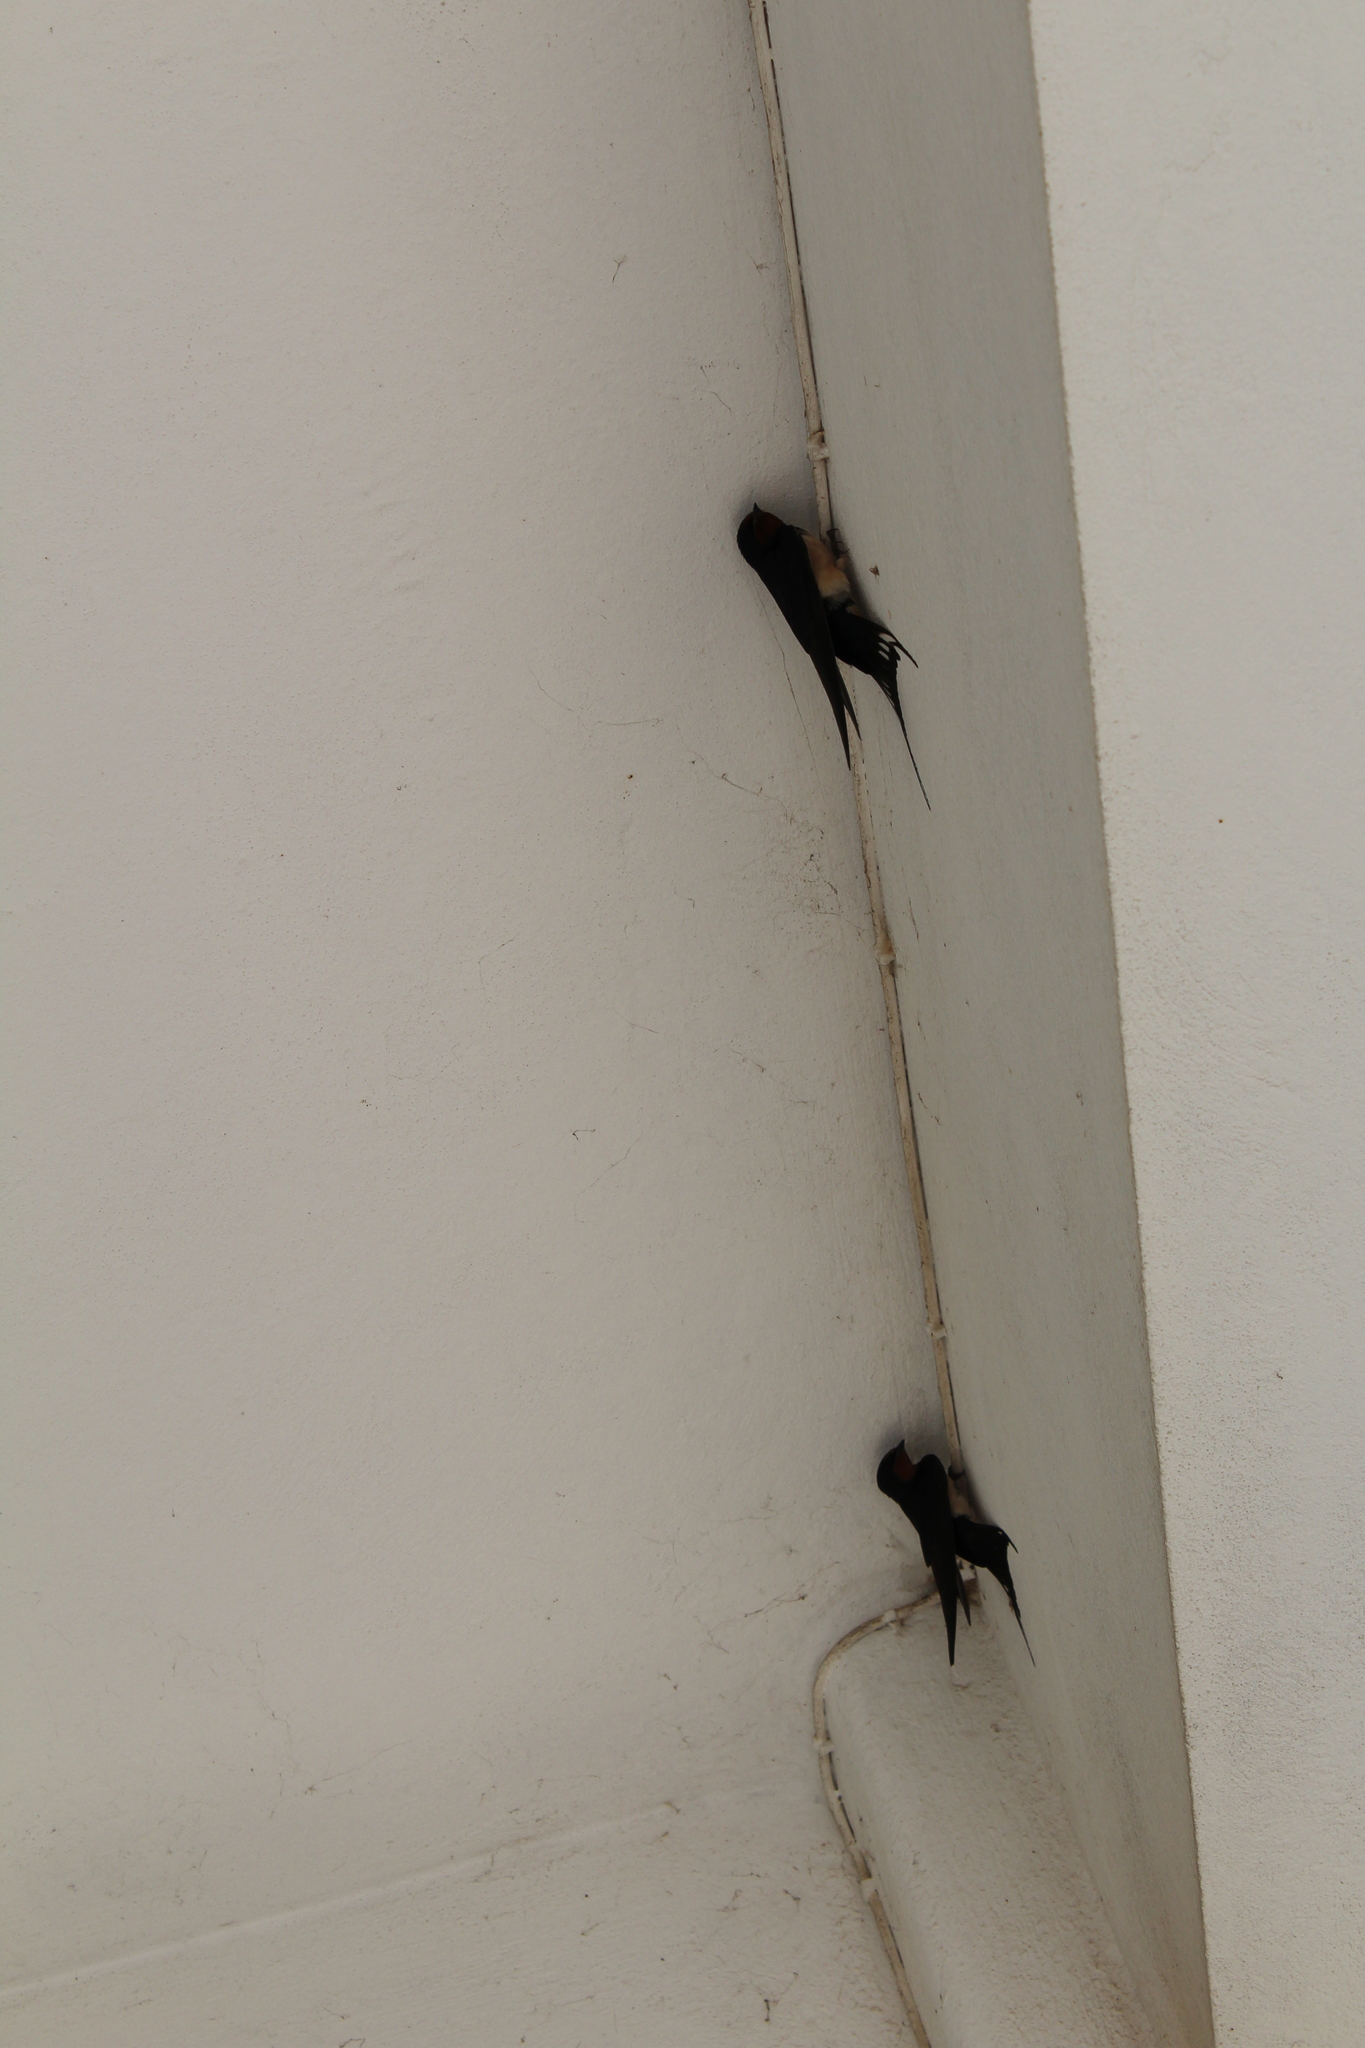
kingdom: Animalia
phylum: Chordata
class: Aves
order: Passeriformes
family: Hirundinidae
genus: Hirundo
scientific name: Hirundo rustica
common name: Barn swallow
